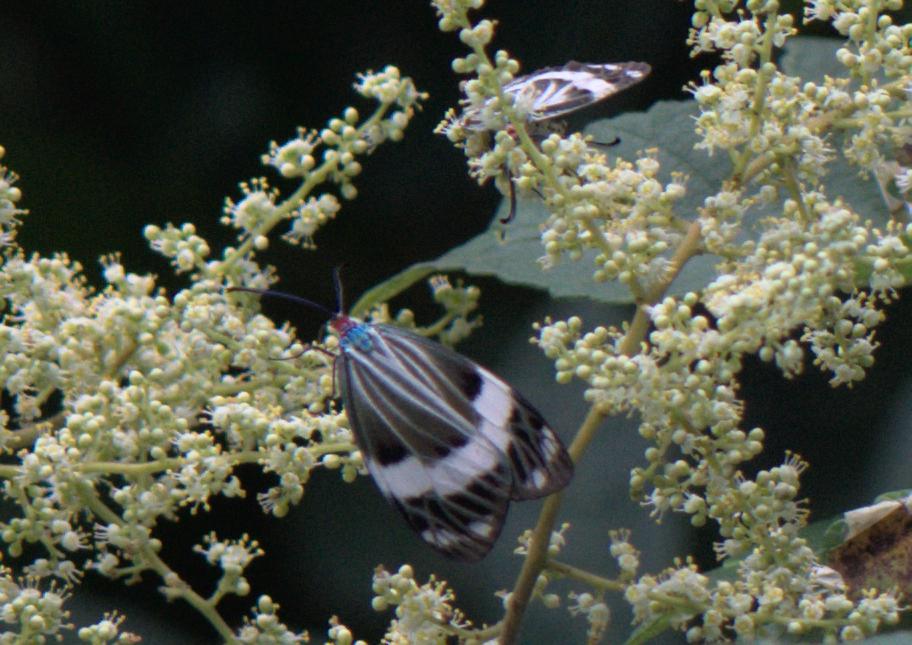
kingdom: Animalia
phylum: Arthropoda
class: Insecta
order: Lepidoptera
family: Zygaenidae
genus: Chalcosia
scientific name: Chalcosia pectinicornis
